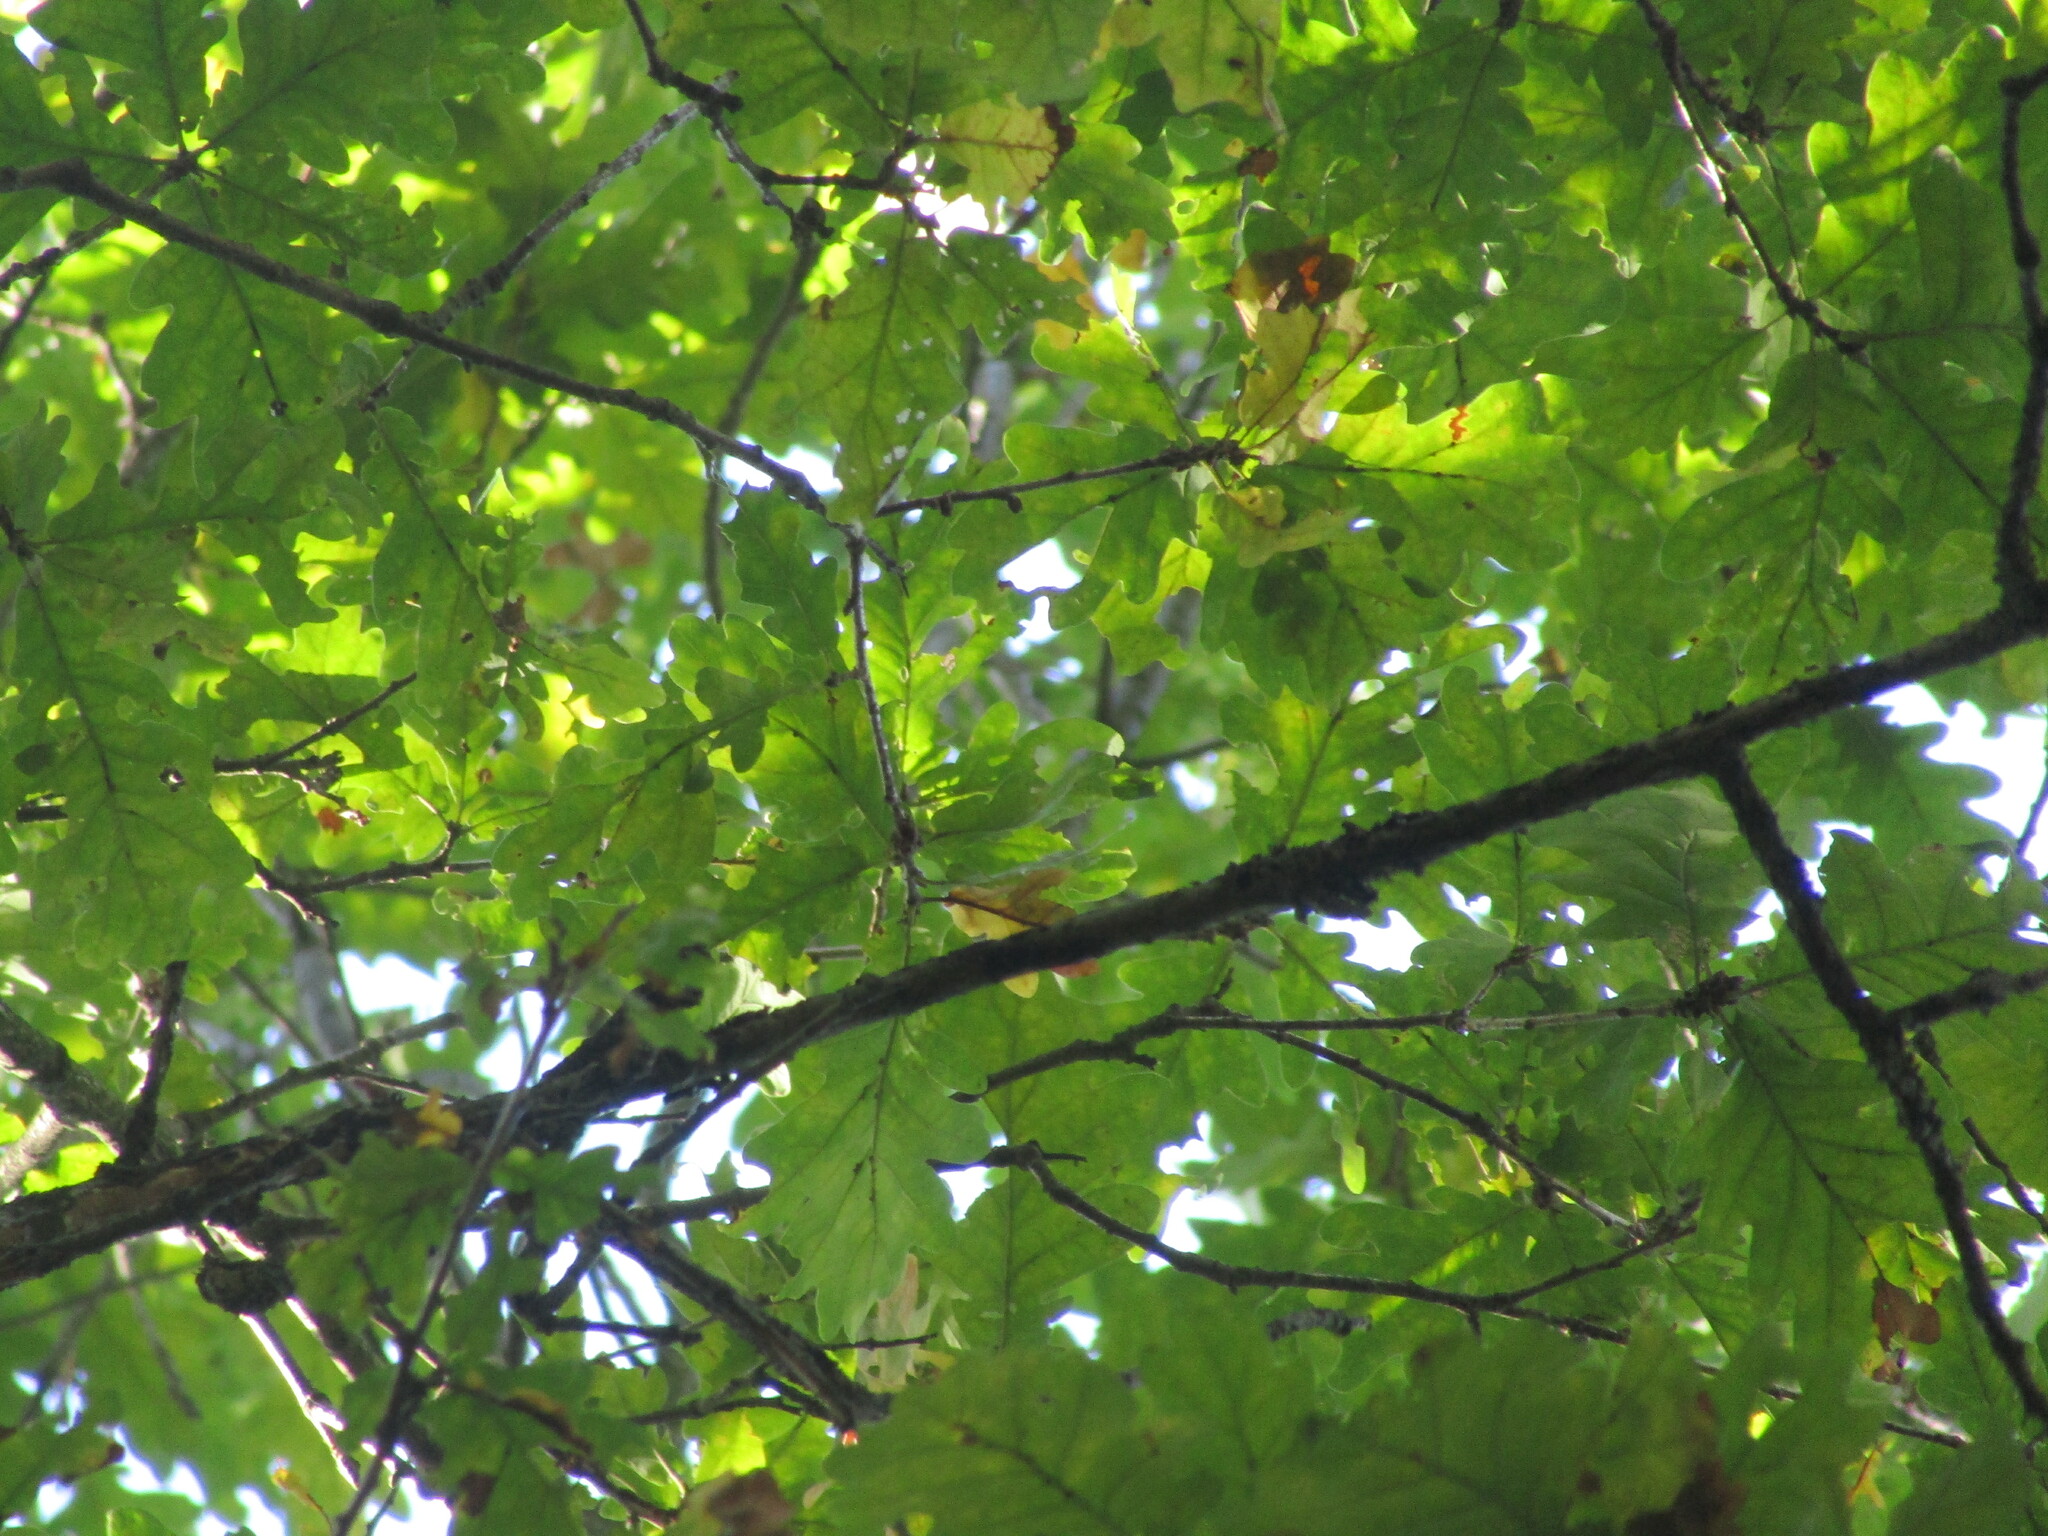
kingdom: Plantae
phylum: Tracheophyta
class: Magnoliopsida
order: Fagales
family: Fagaceae
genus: Quercus
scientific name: Quercus robur
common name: Pedunculate oak
